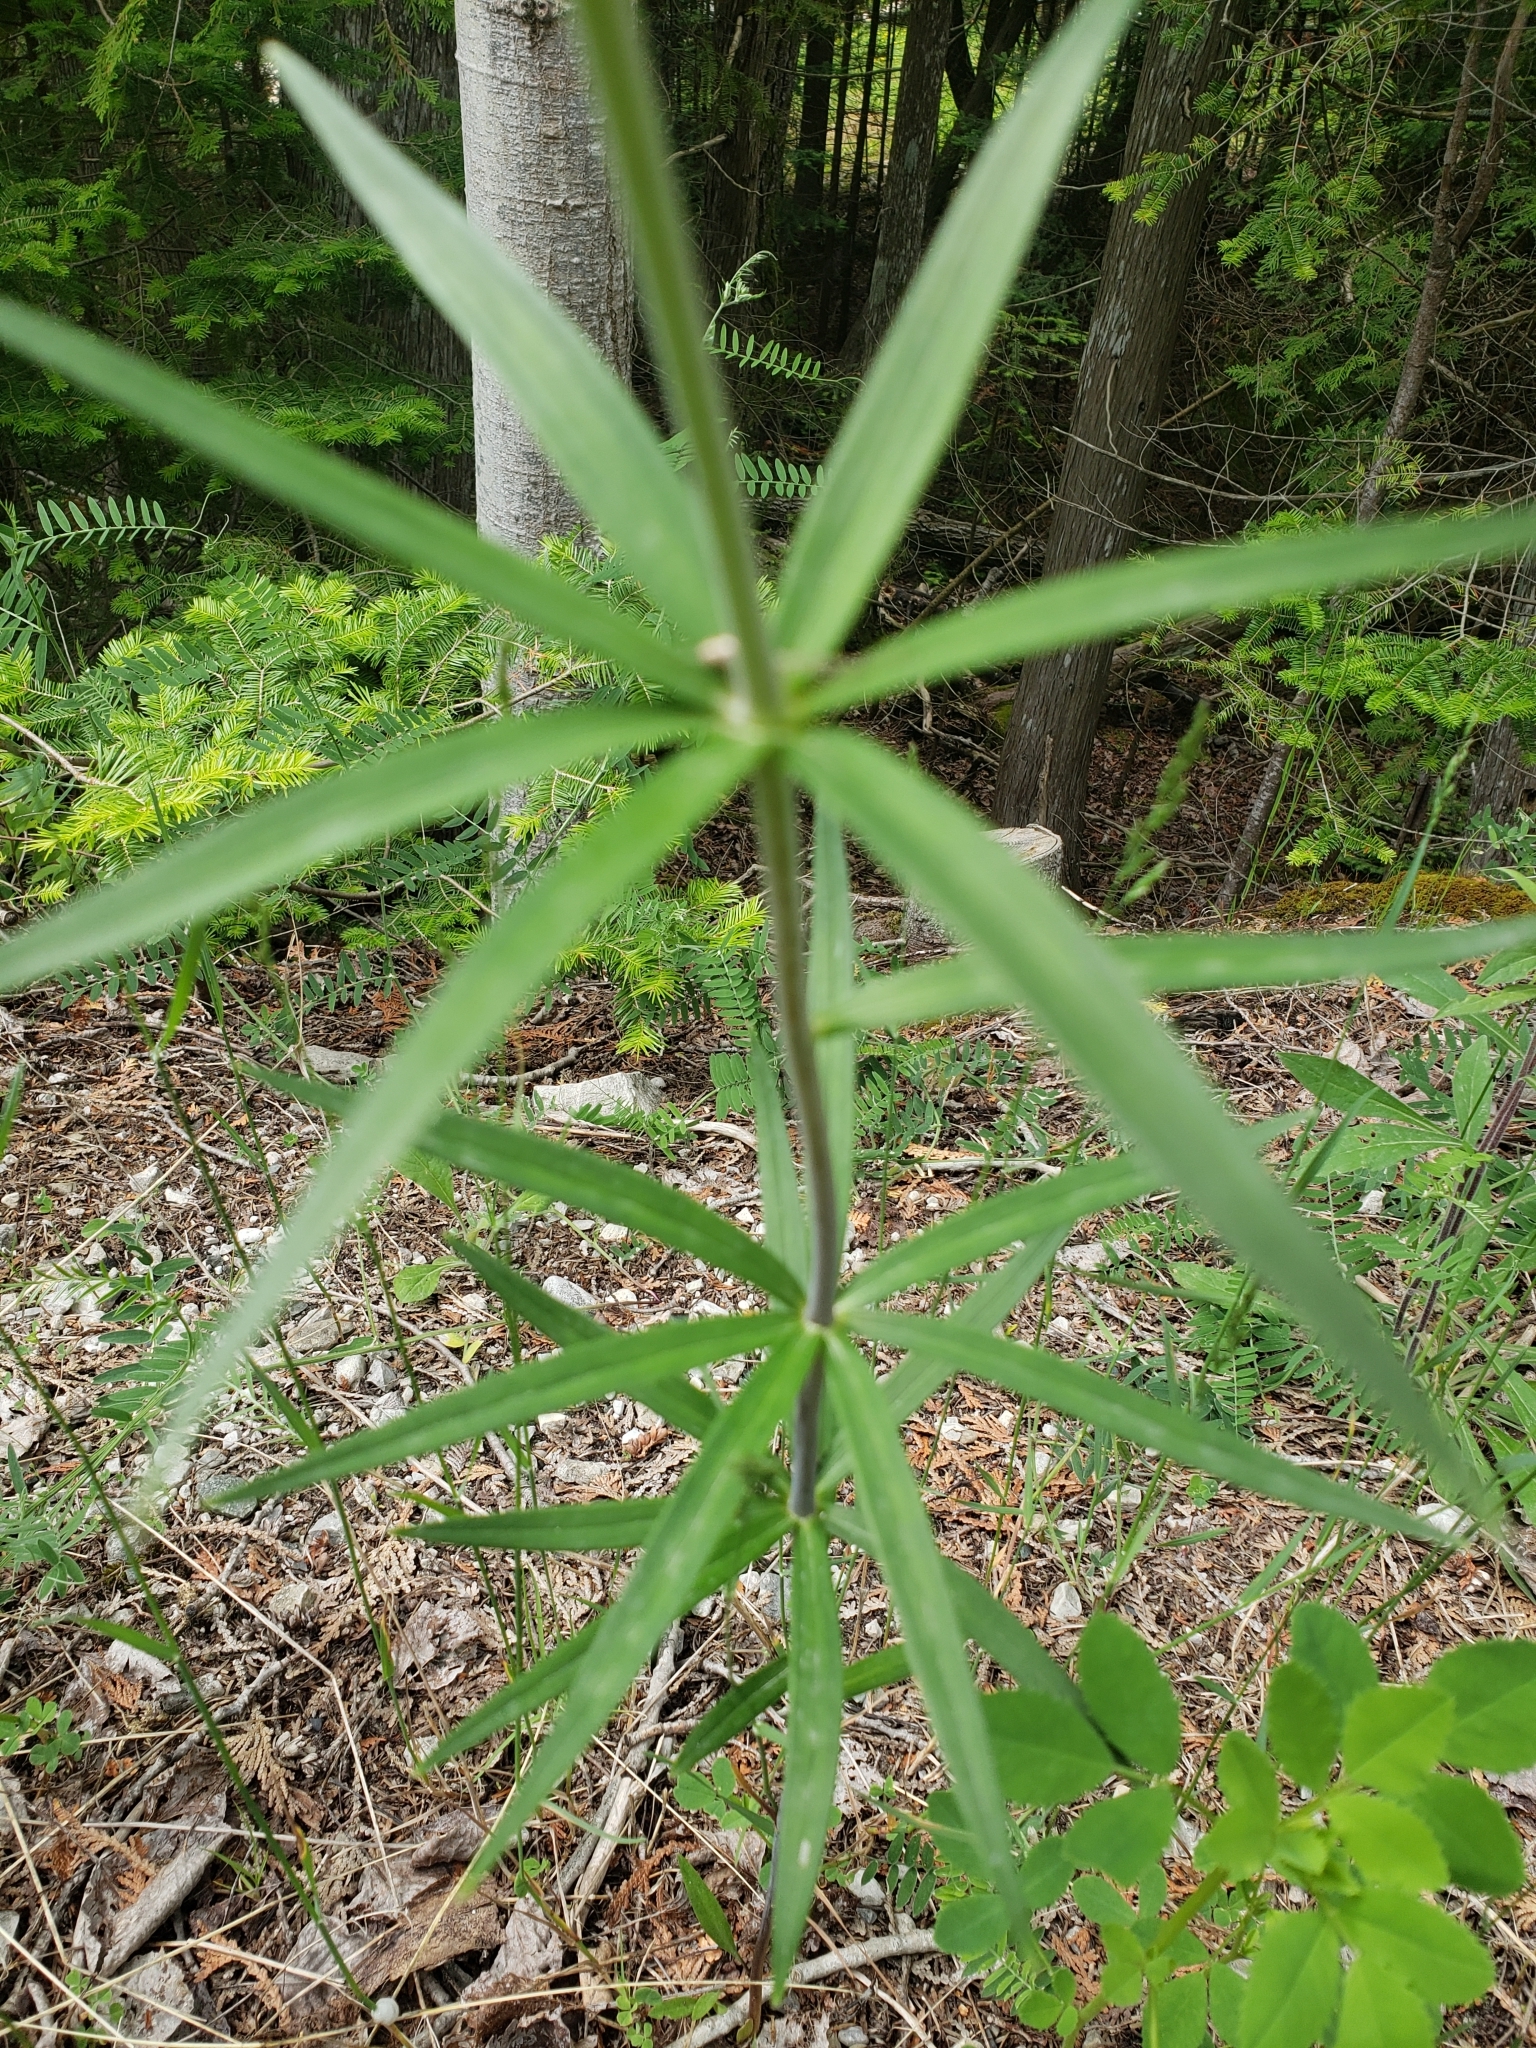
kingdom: Plantae
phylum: Tracheophyta
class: Liliopsida
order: Liliales
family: Liliaceae
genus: Lilium
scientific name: Lilium philadelphicum
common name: Red lily
